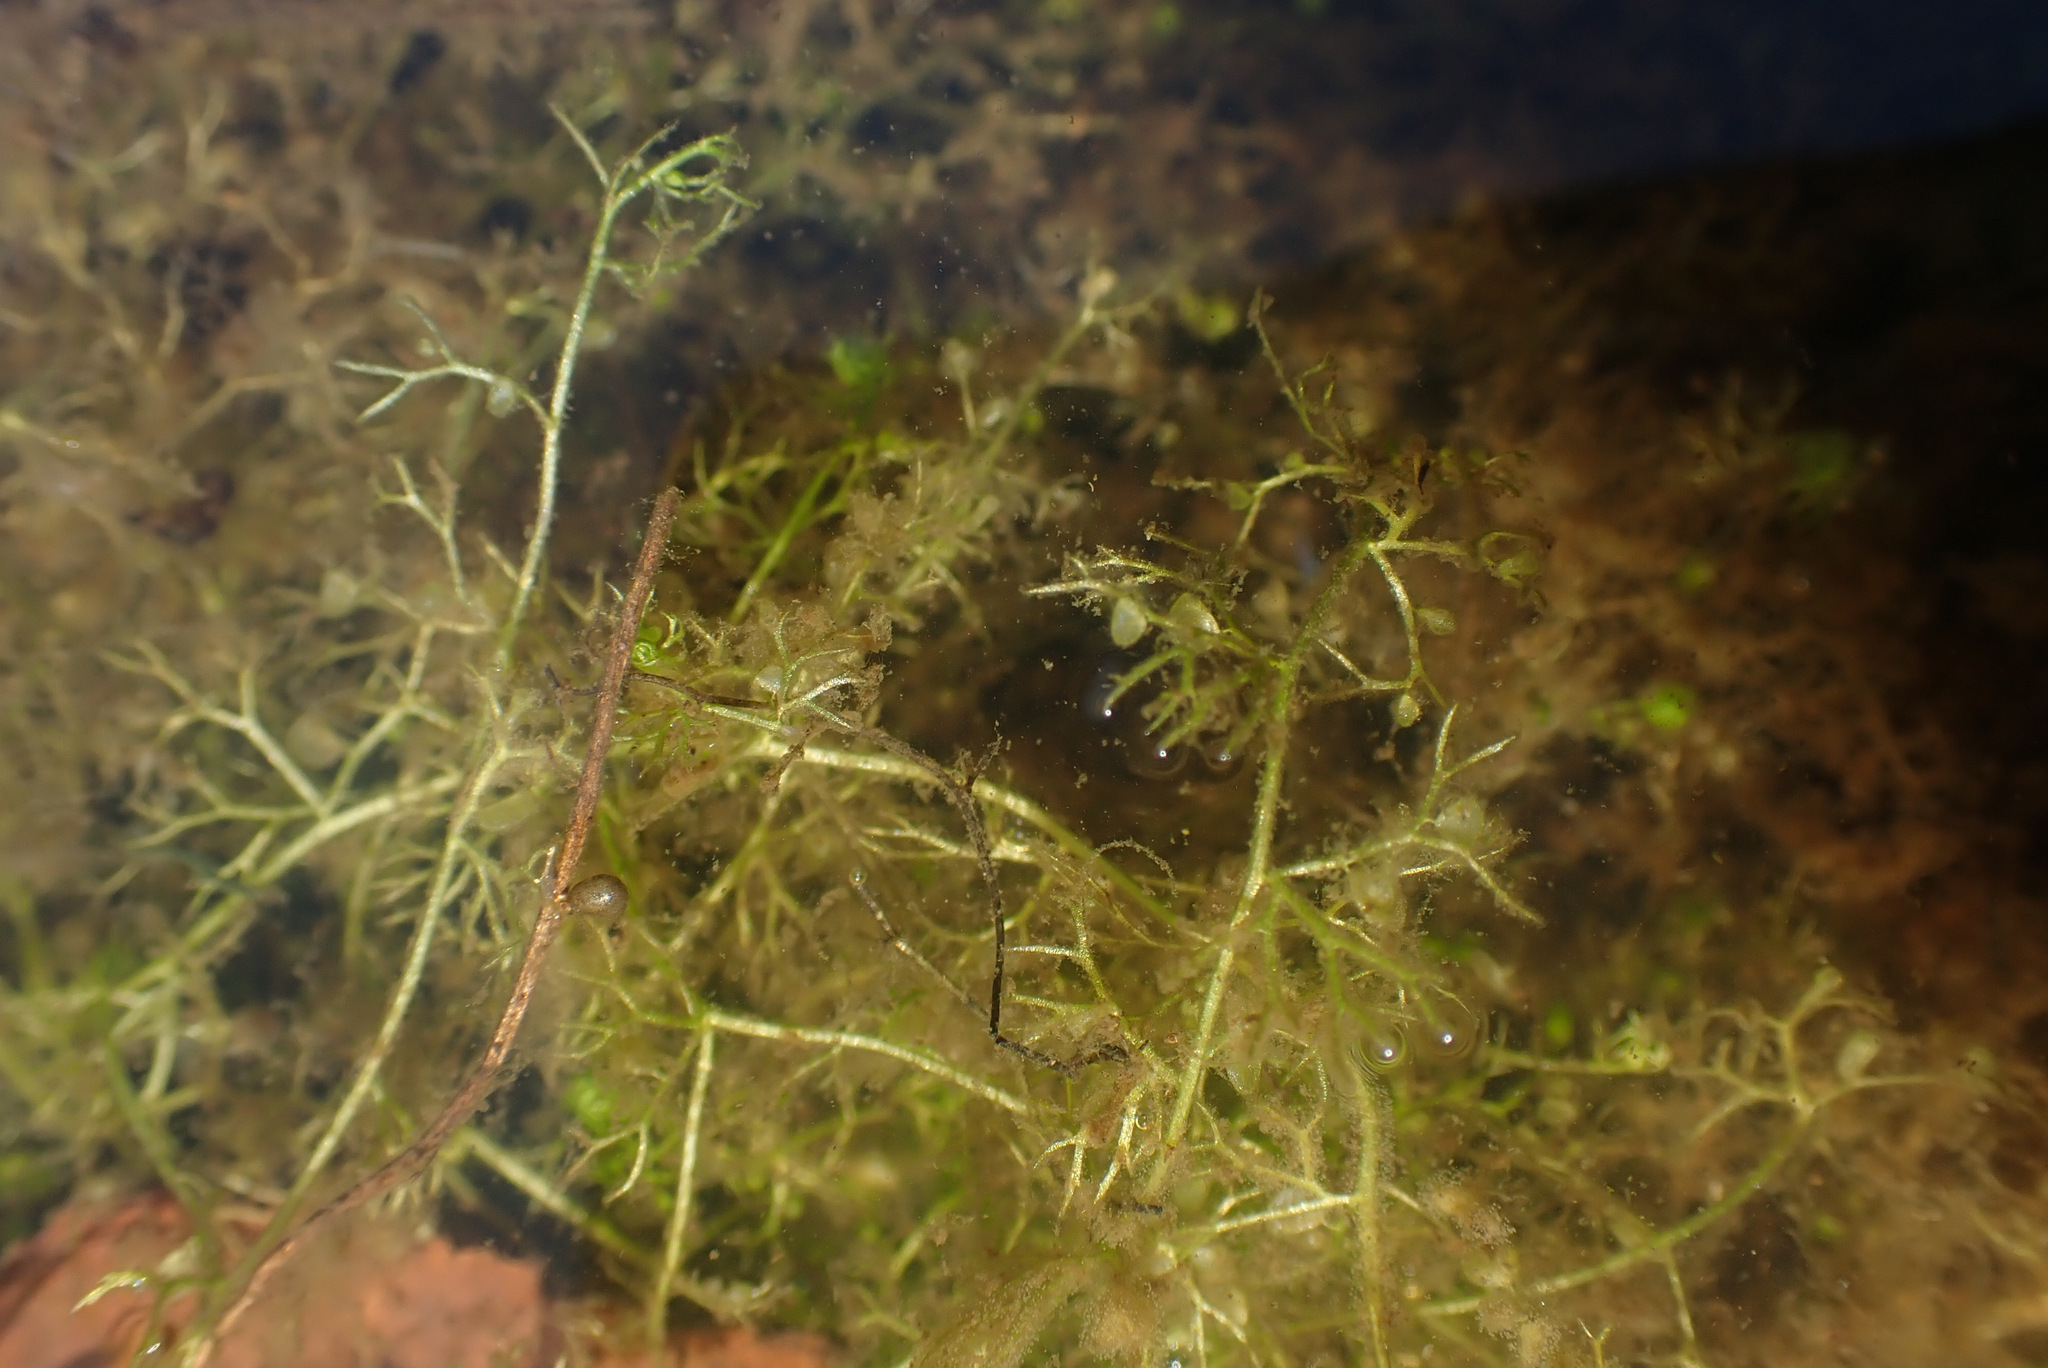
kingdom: Plantae
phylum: Tracheophyta
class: Magnoliopsida
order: Lamiales
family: Lentibulariaceae
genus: Utricularia
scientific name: Utricularia minor
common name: Lesser bladderwort
